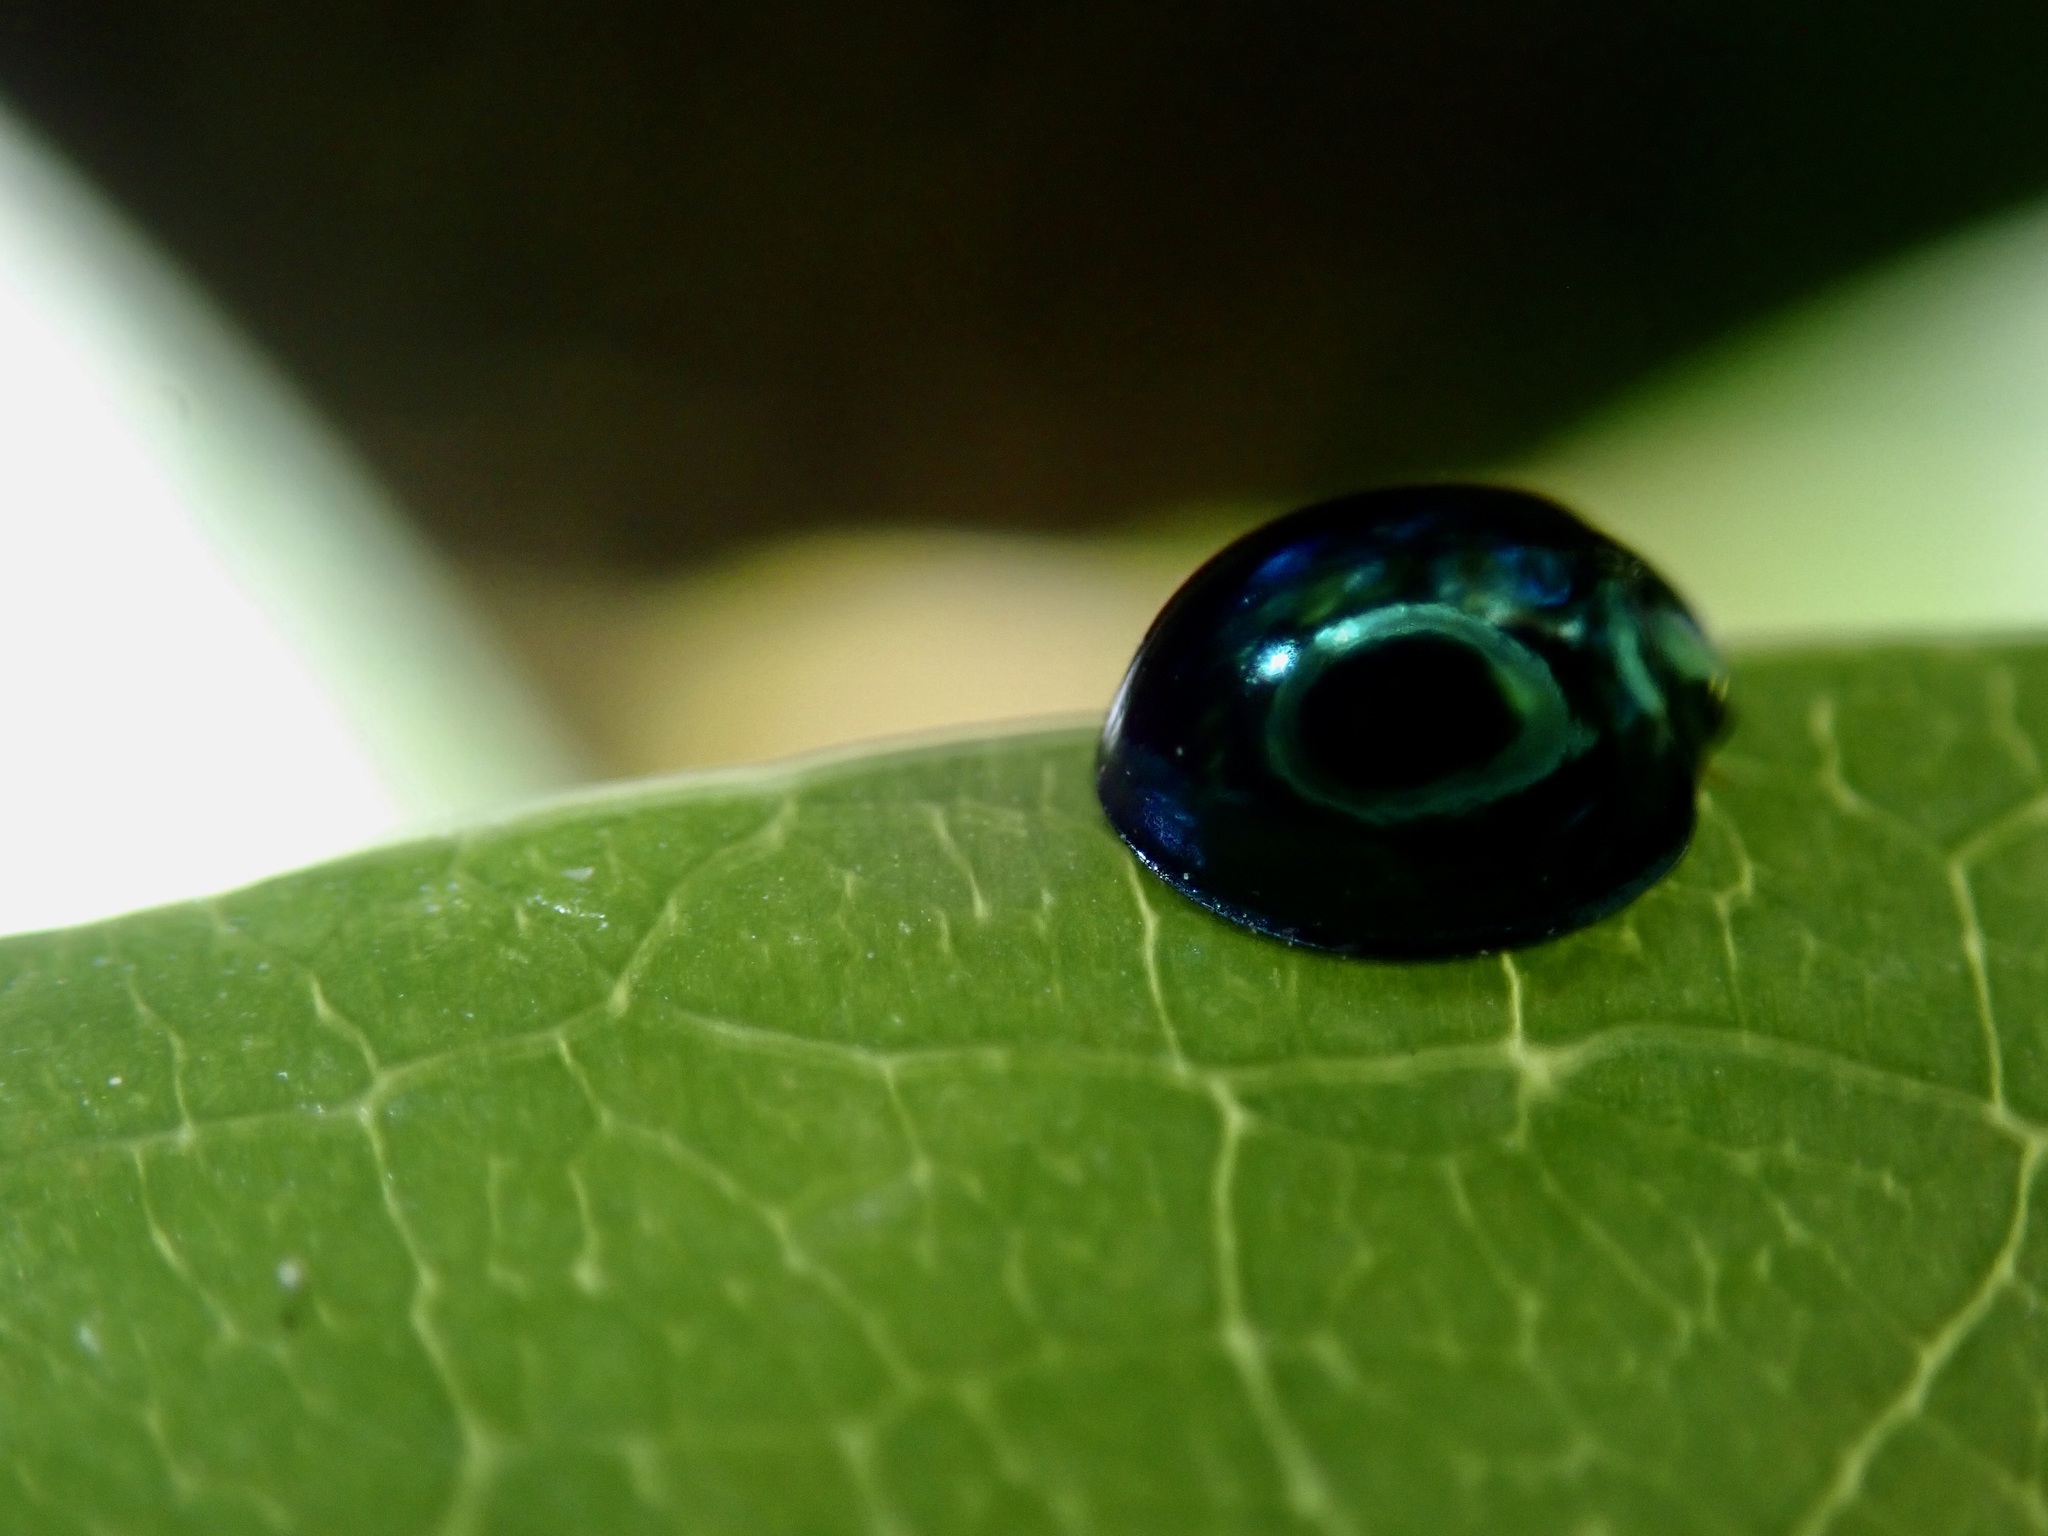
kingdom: Animalia
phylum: Arthropoda
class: Insecta
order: Coleoptera
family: Coccinellidae
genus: Halmus
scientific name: Halmus chalybeus
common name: Steel blue ladybird beetle
